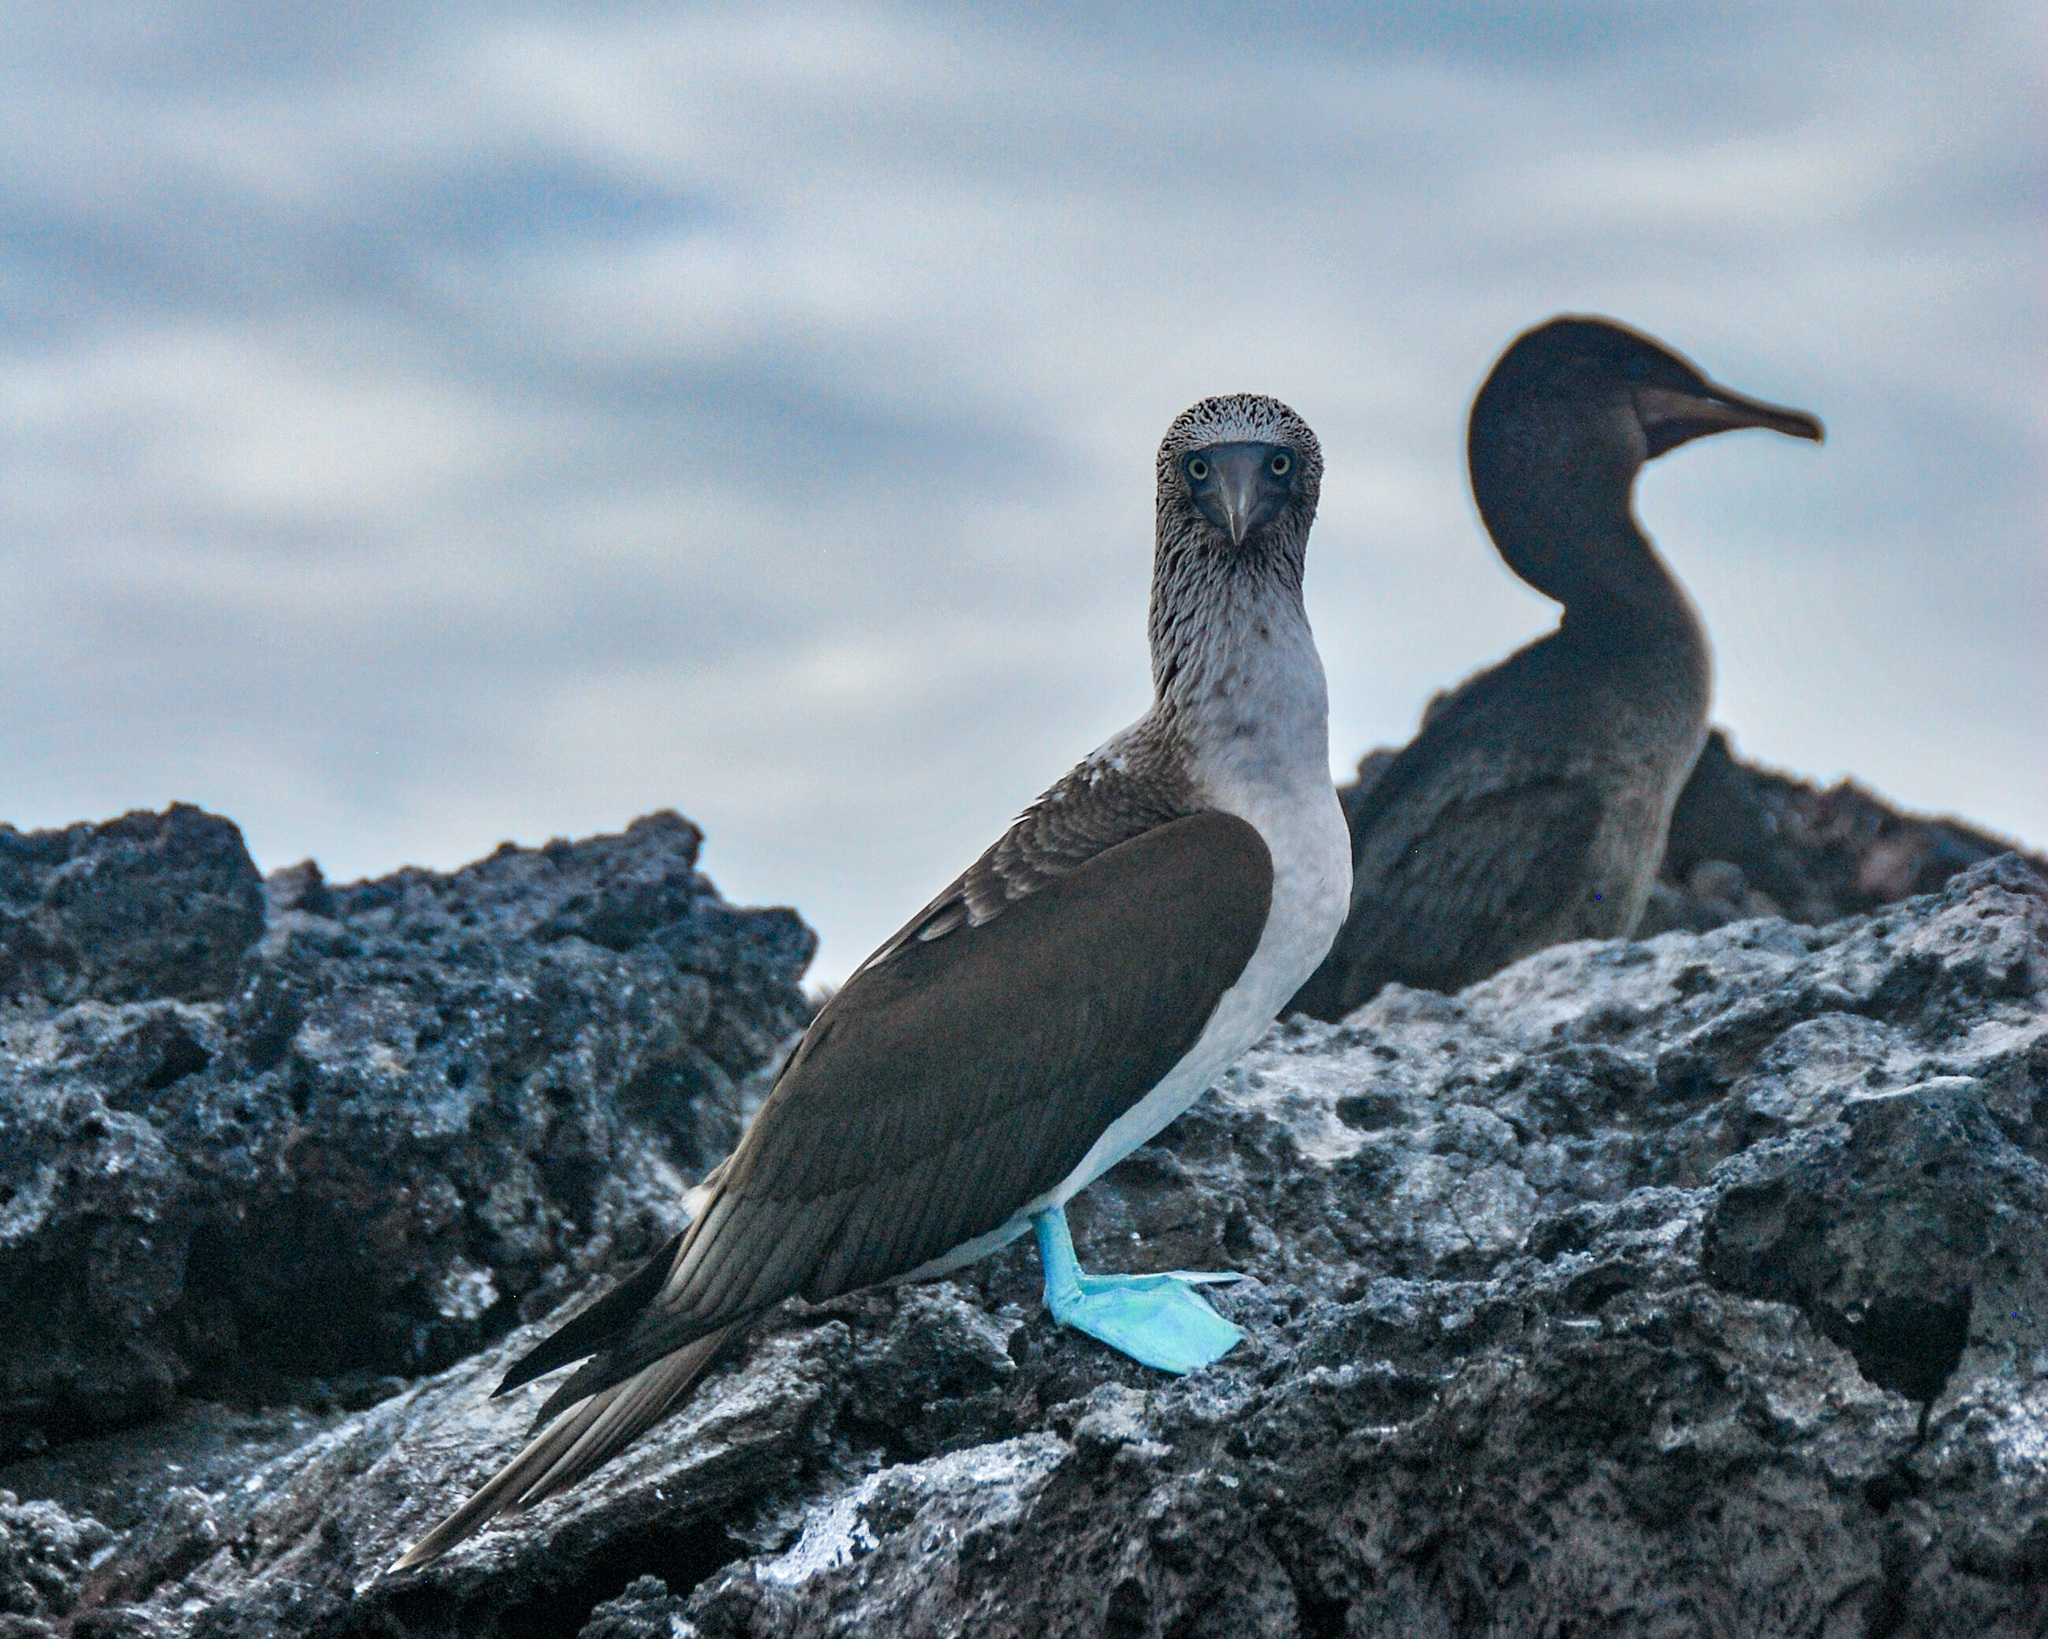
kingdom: Animalia
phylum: Chordata
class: Aves
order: Suliformes
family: Sulidae
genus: Sula
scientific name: Sula nebouxii
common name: Blue-footed booby
